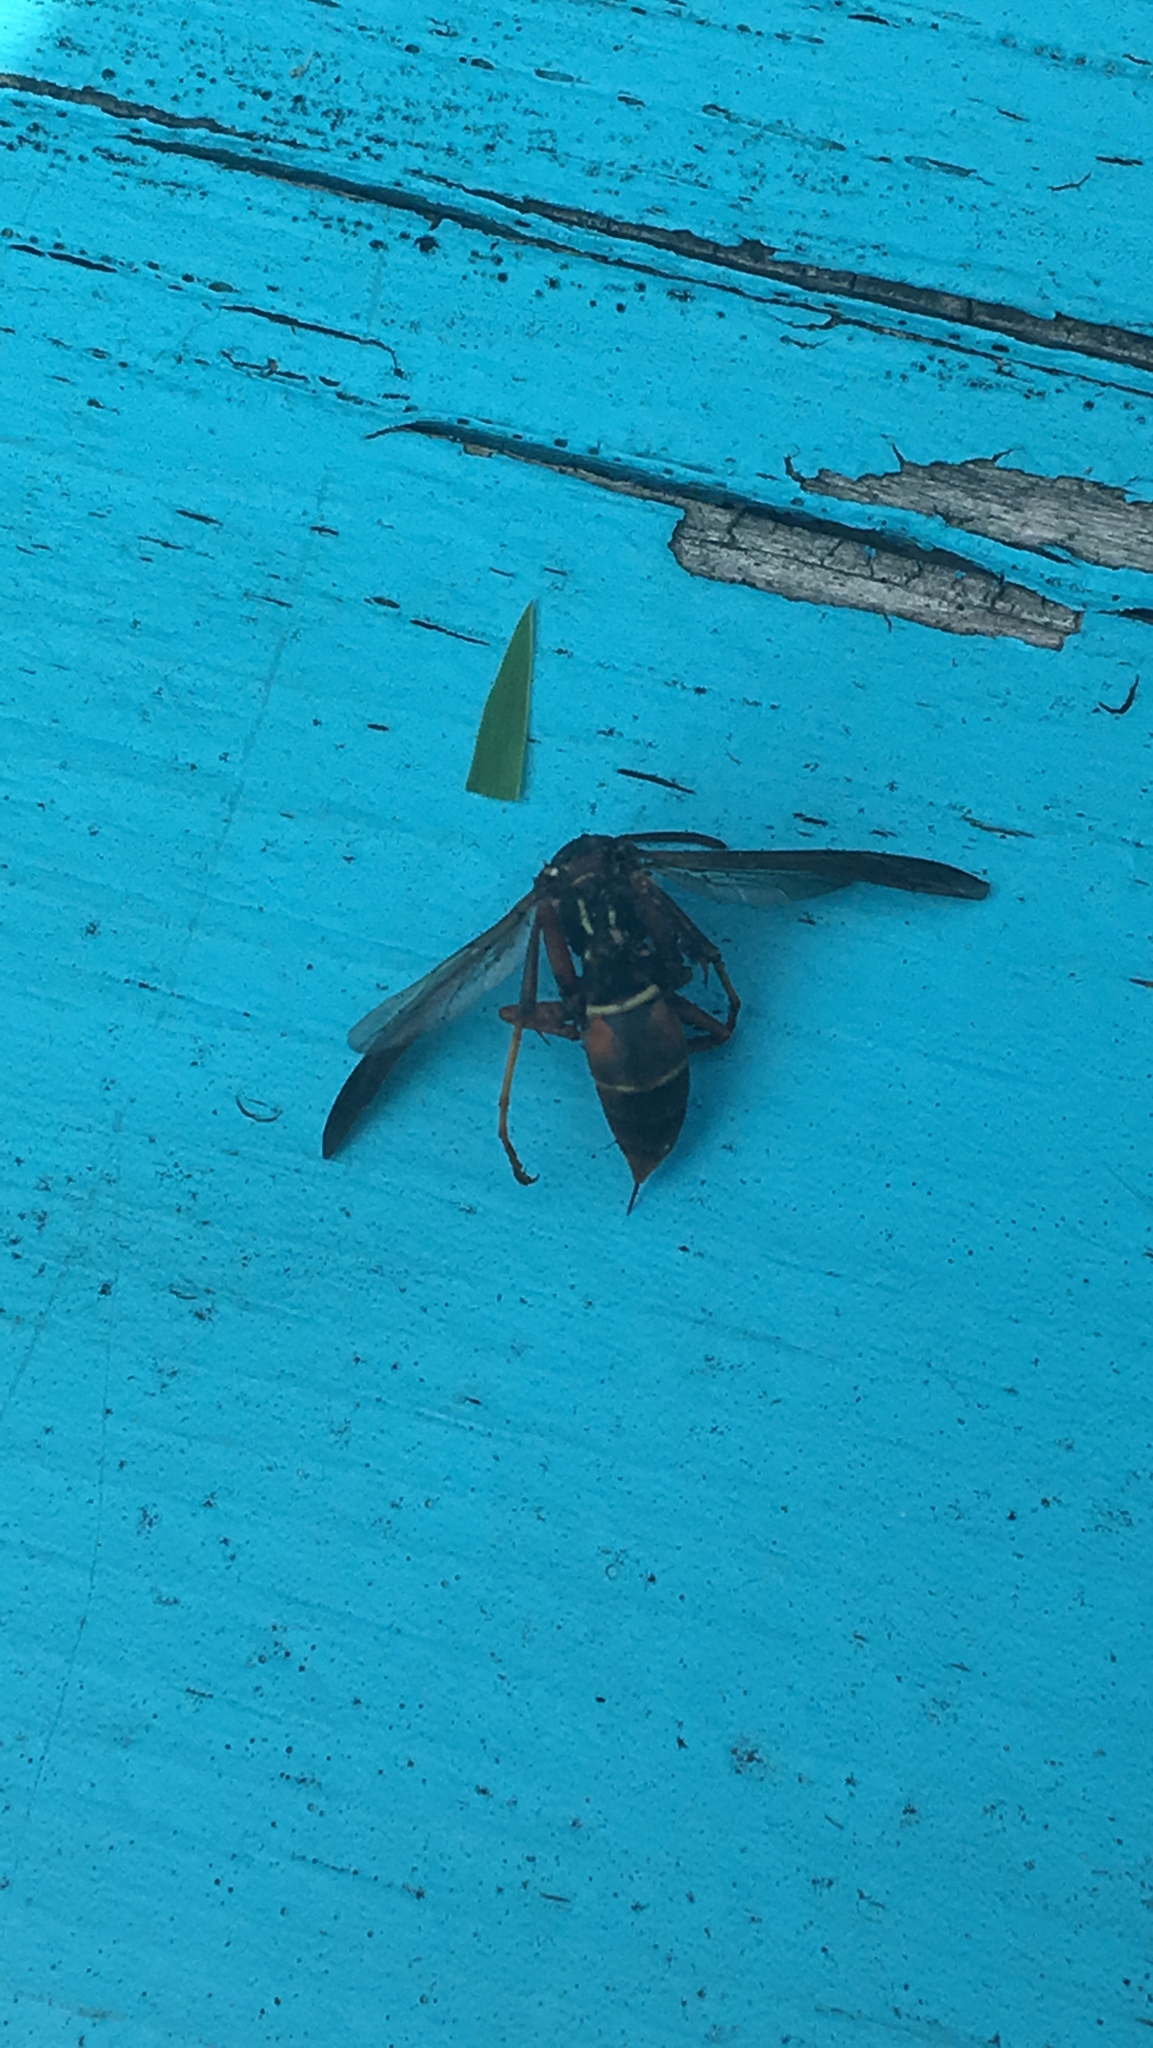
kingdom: Animalia
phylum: Arthropoda
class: Insecta
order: Hymenoptera
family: Eumenidae
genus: Polistes
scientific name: Polistes fuscatus
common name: Dark paper wasp
